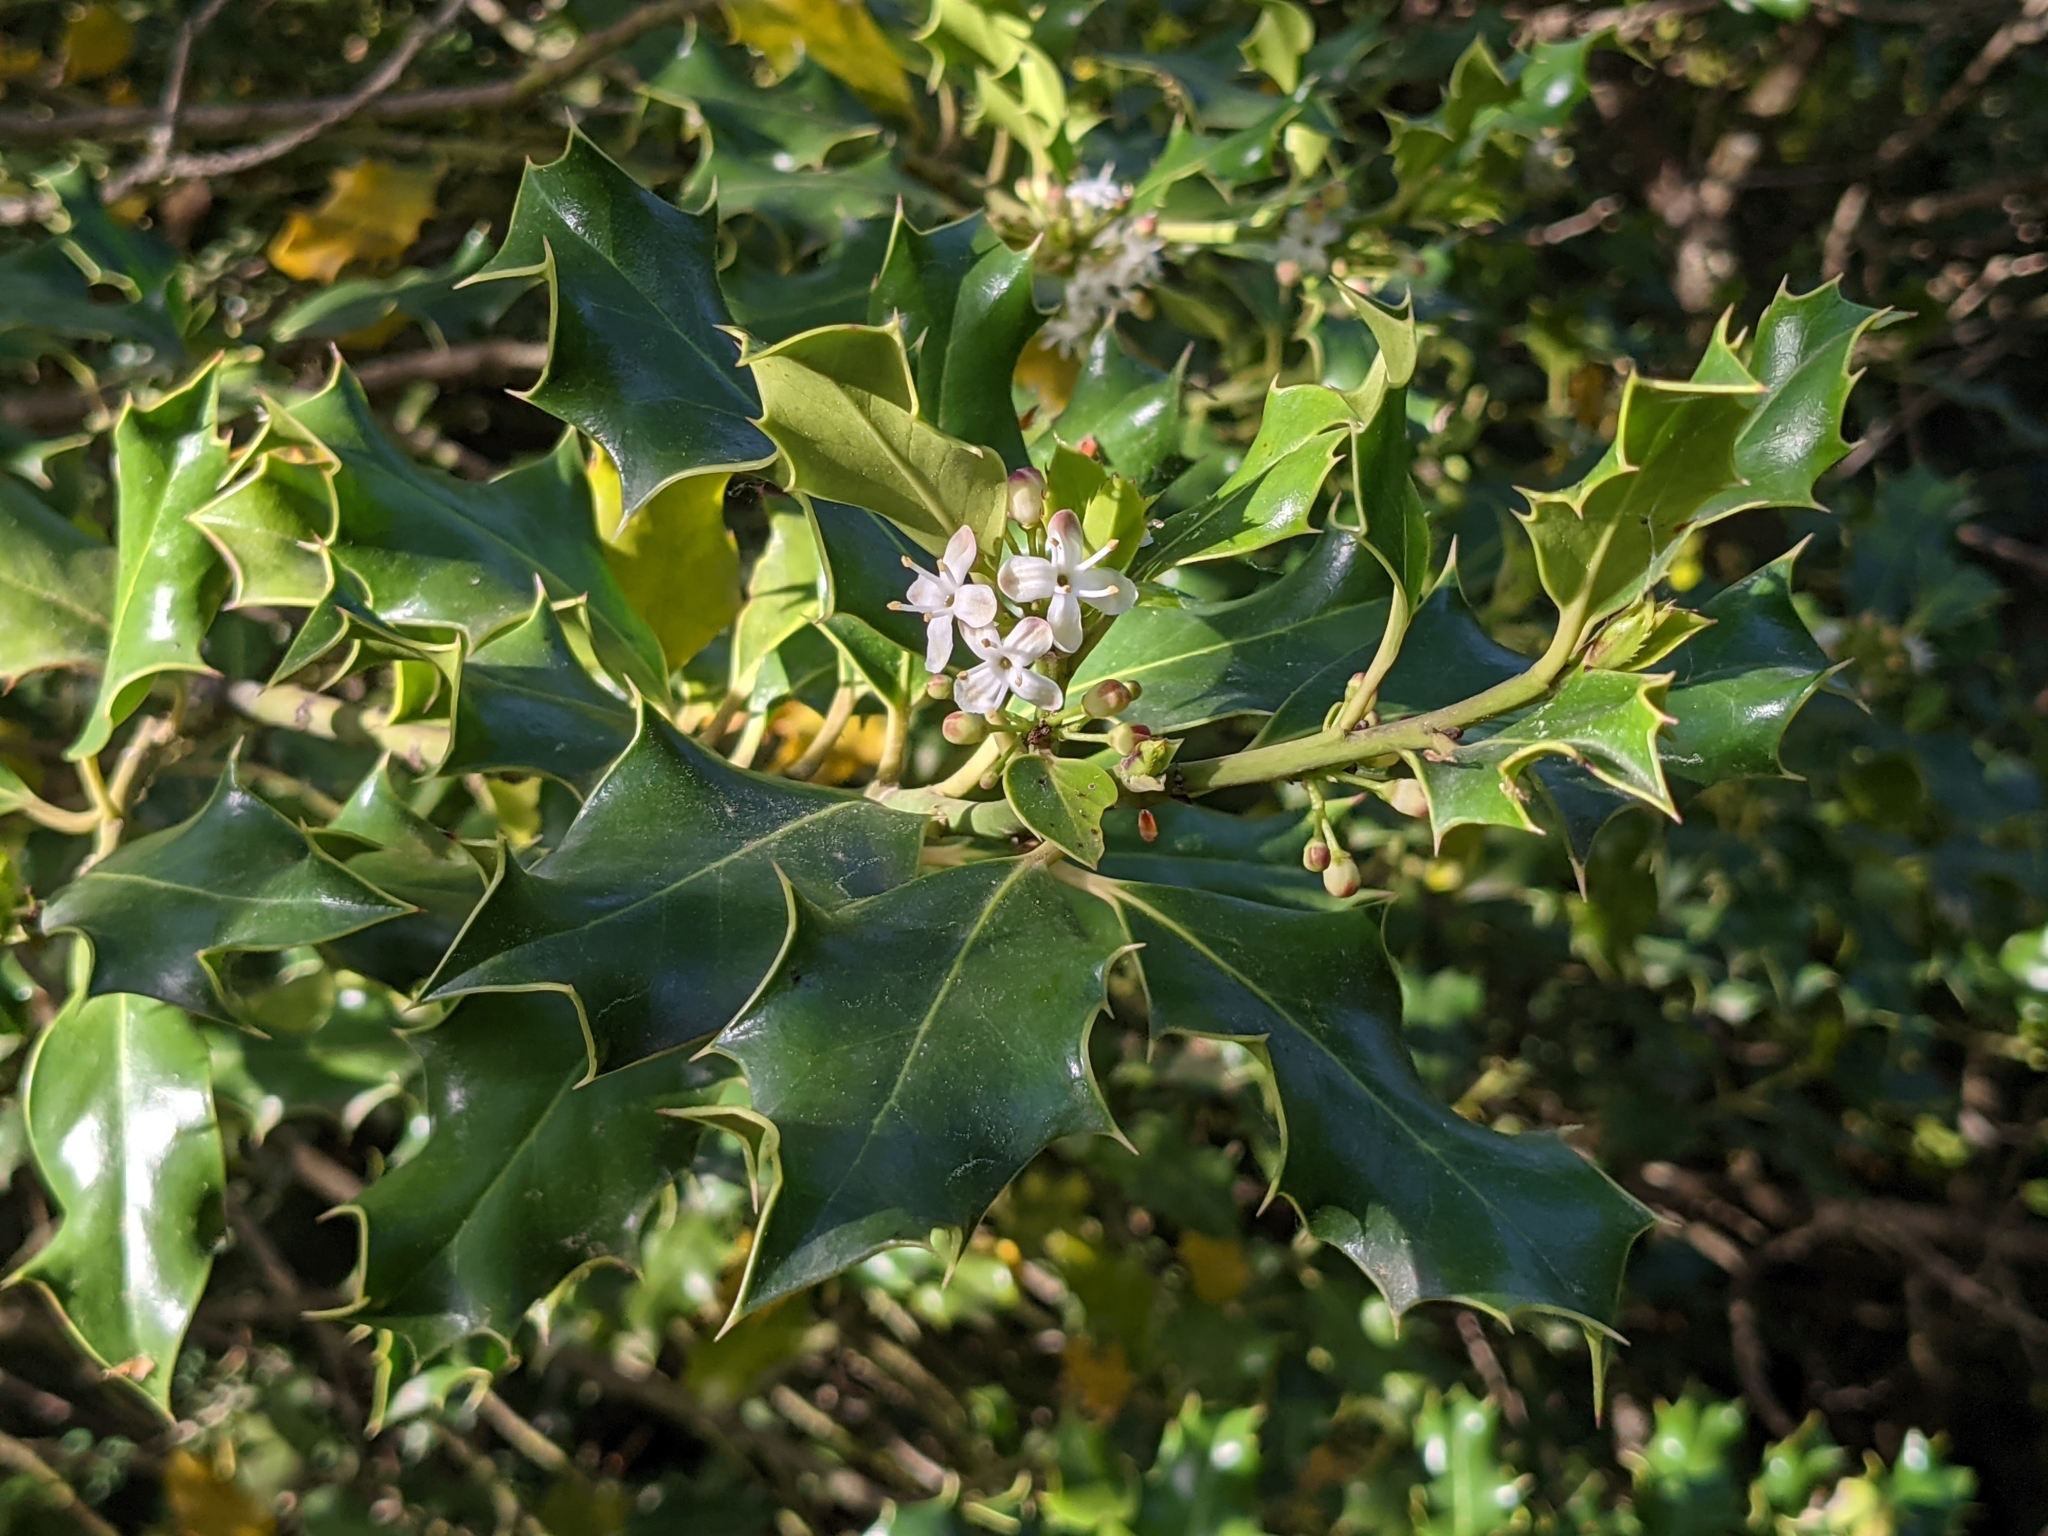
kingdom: Plantae
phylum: Tracheophyta
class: Magnoliopsida
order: Aquifoliales
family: Aquifoliaceae
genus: Ilex
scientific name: Ilex aquifolium
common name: English holly
